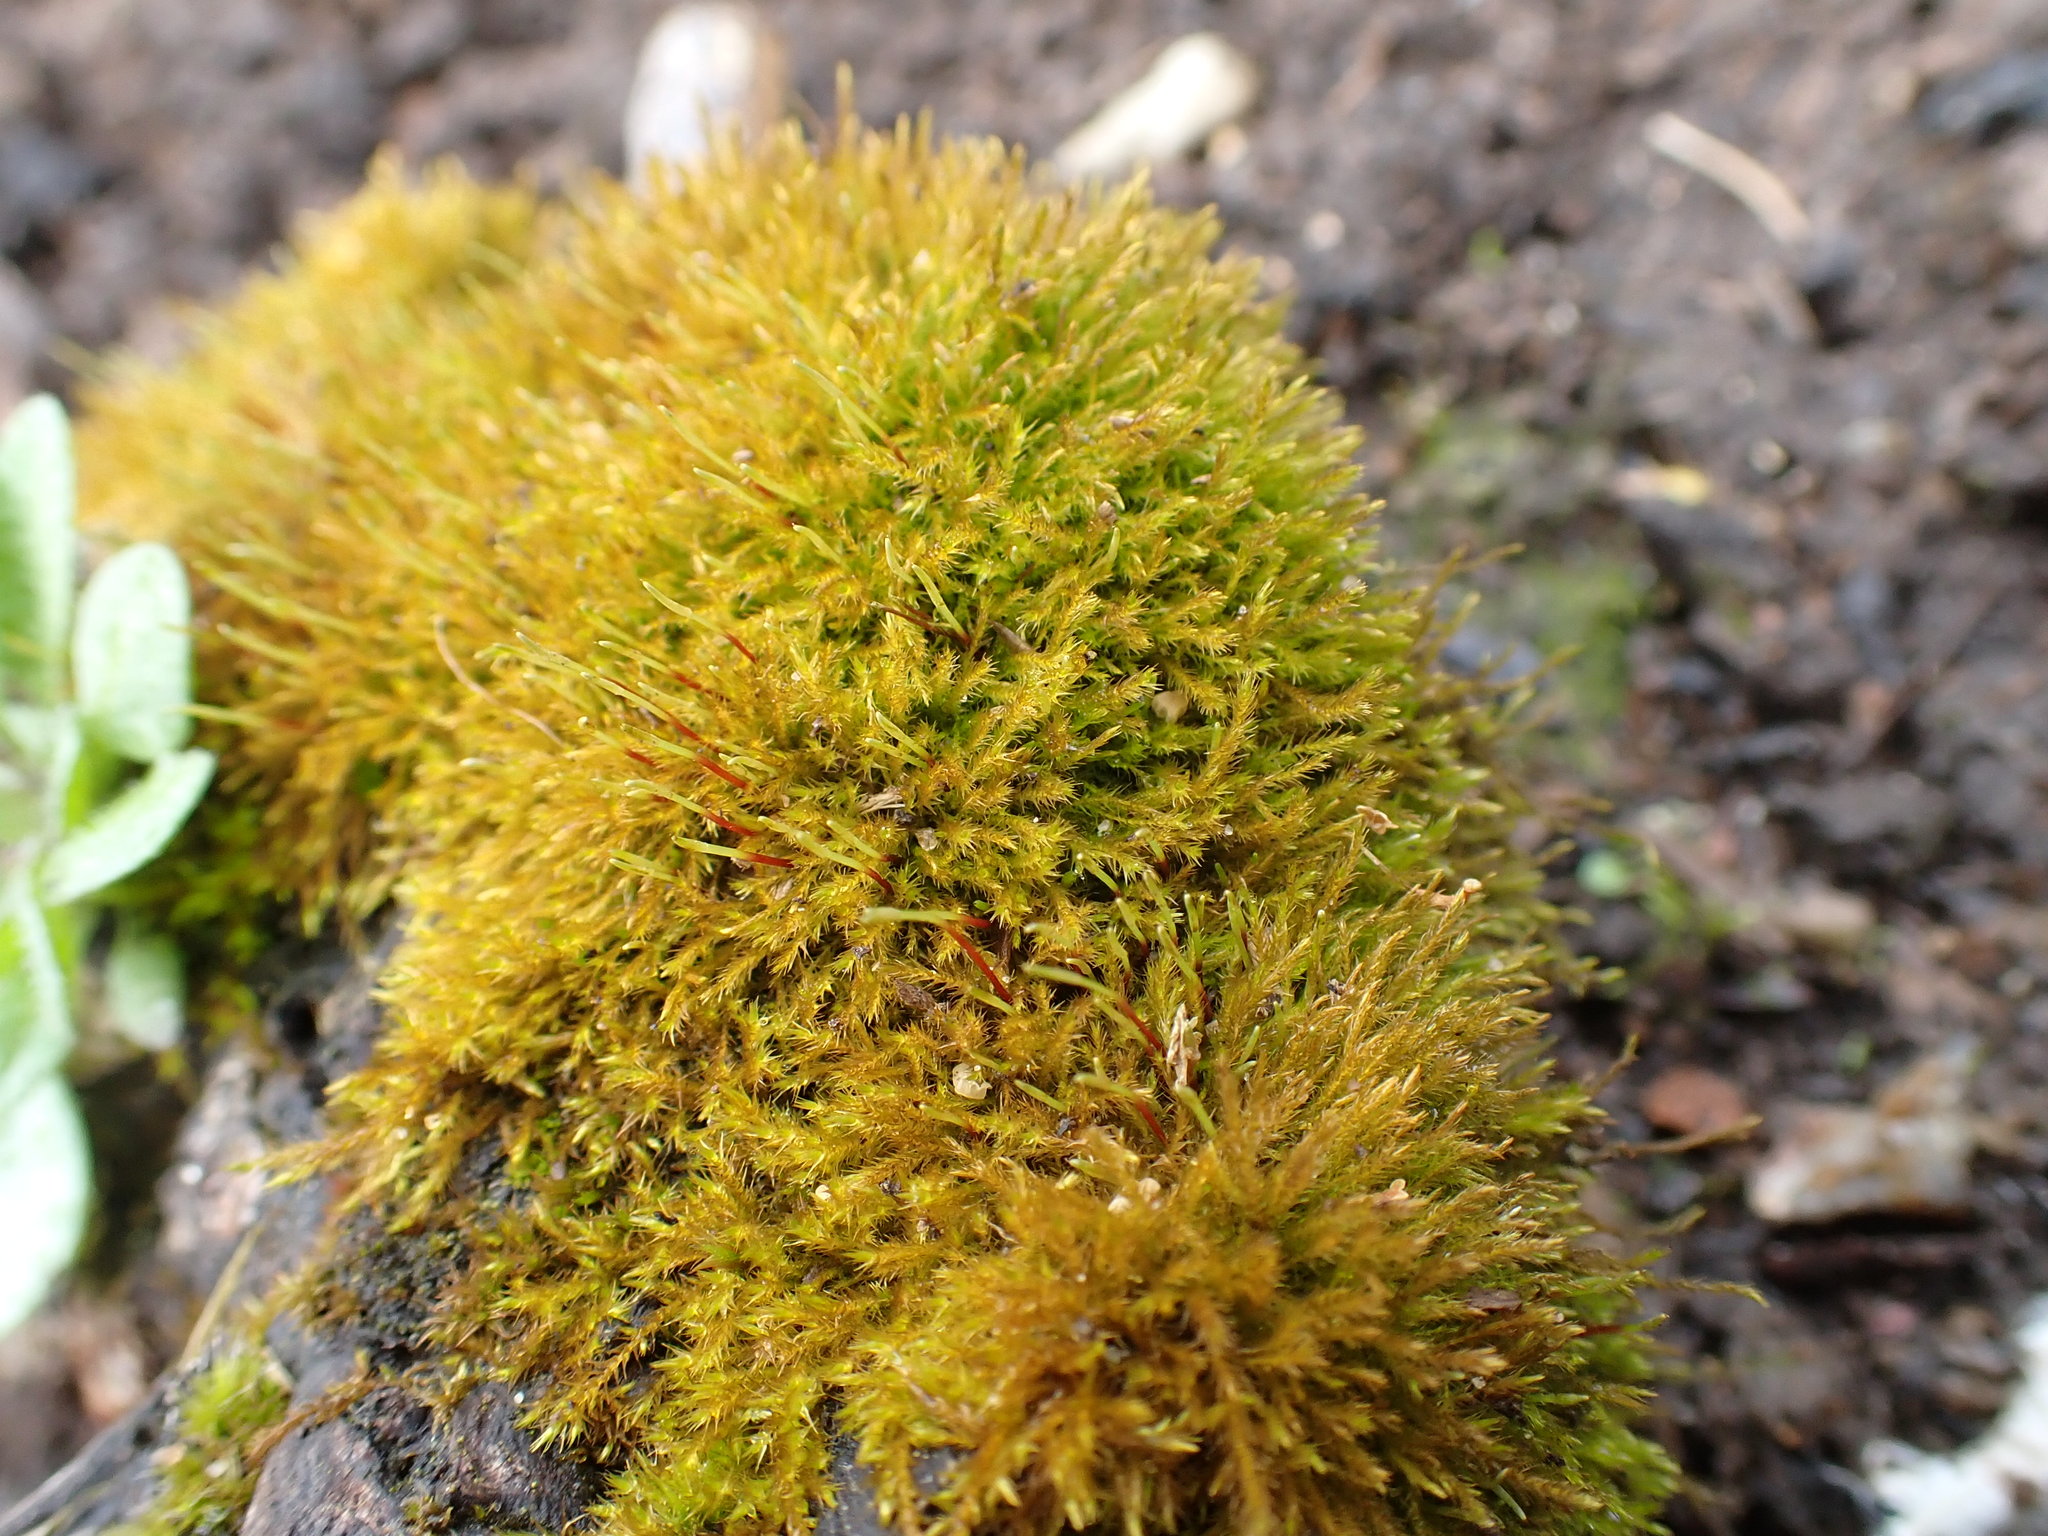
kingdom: Plantae
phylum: Bryophyta
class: Bryopsida
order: Hypnales
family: Amblystegiaceae
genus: Amblystegium
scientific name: Amblystegium serpens
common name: Jurkatzka's feather moss
